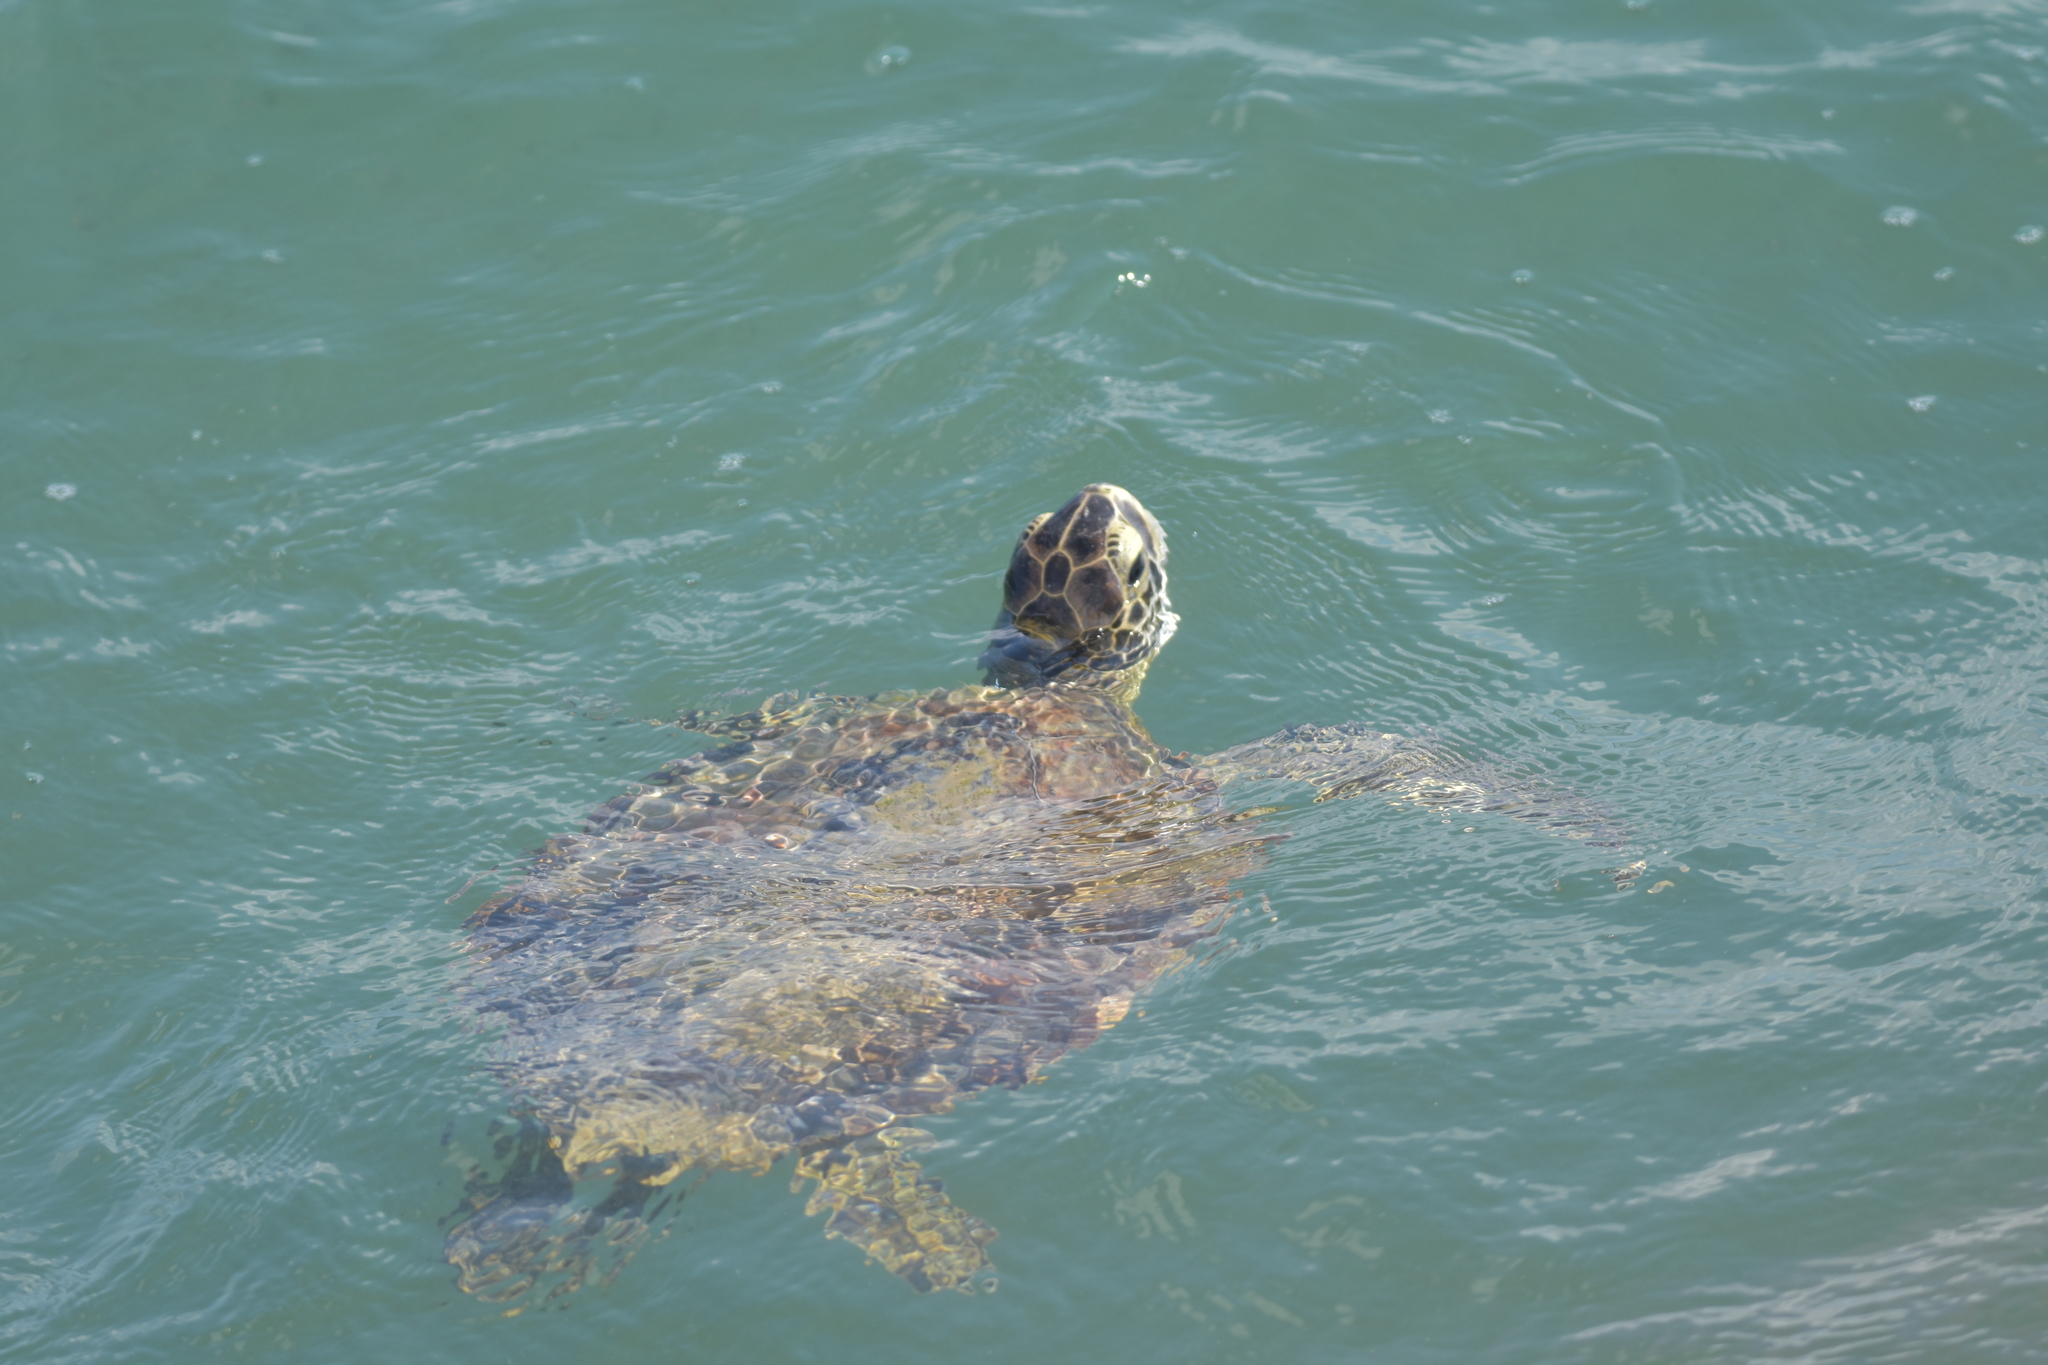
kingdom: Animalia
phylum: Chordata
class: Testudines
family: Cheloniidae
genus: Chelonia
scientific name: Chelonia mydas
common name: Green turtle
